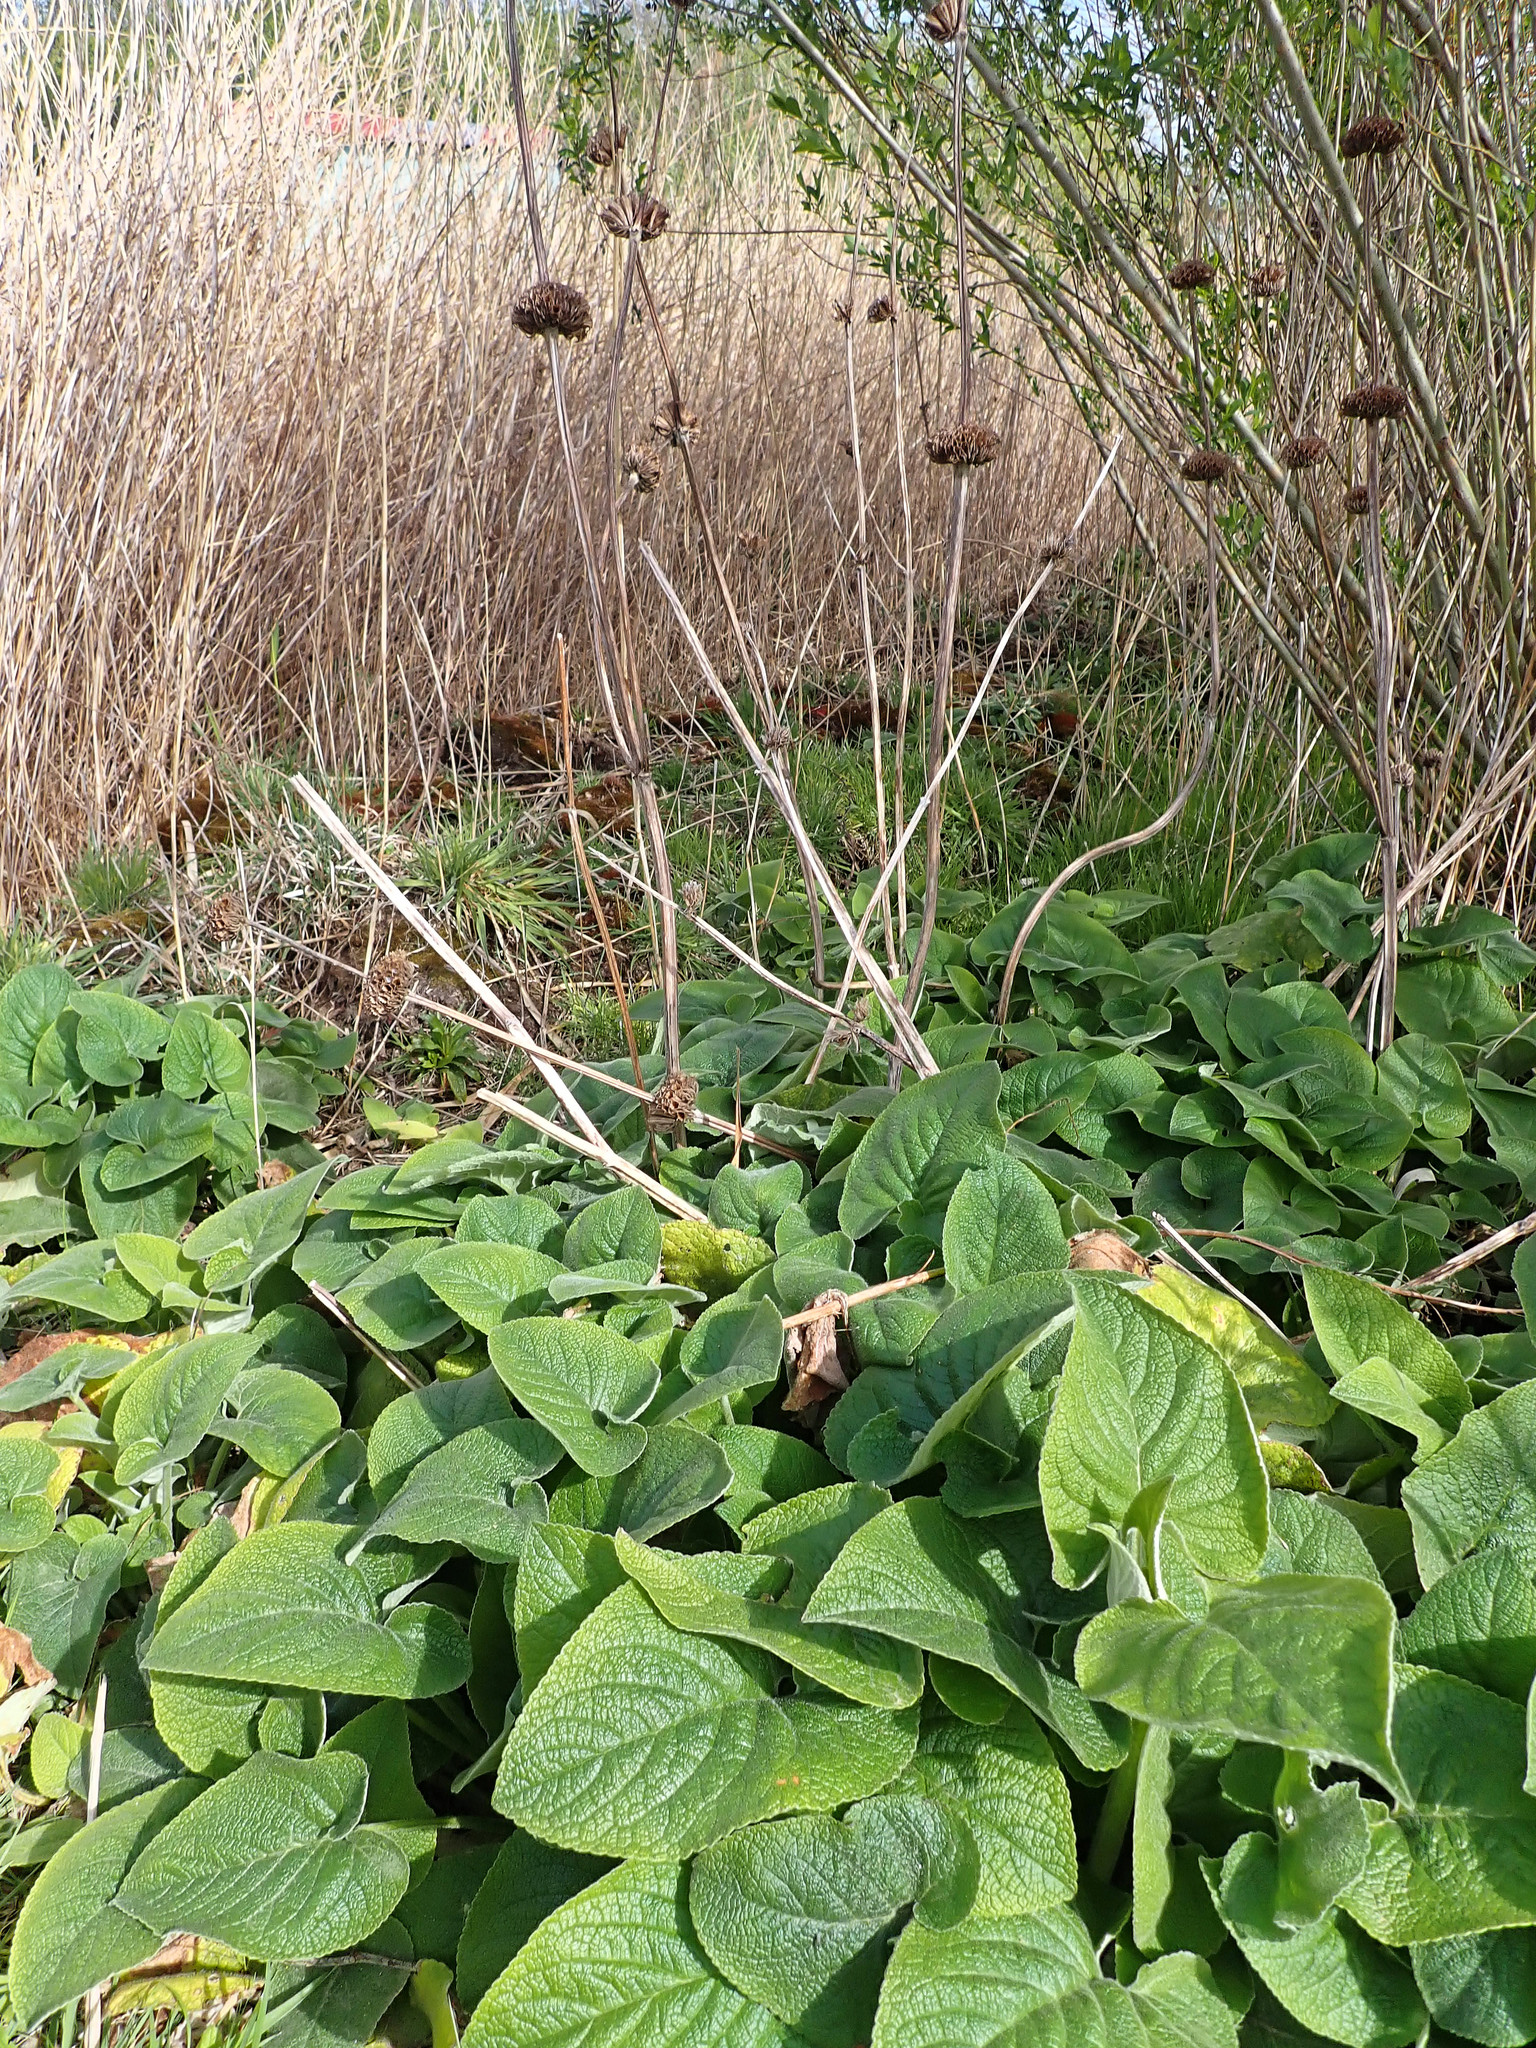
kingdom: Plantae
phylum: Tracheophyta
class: Magnoliopsida
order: Lamiales
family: Lamiaceae
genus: Phlomis
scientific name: Phlomis russeliana
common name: Turkish sage
